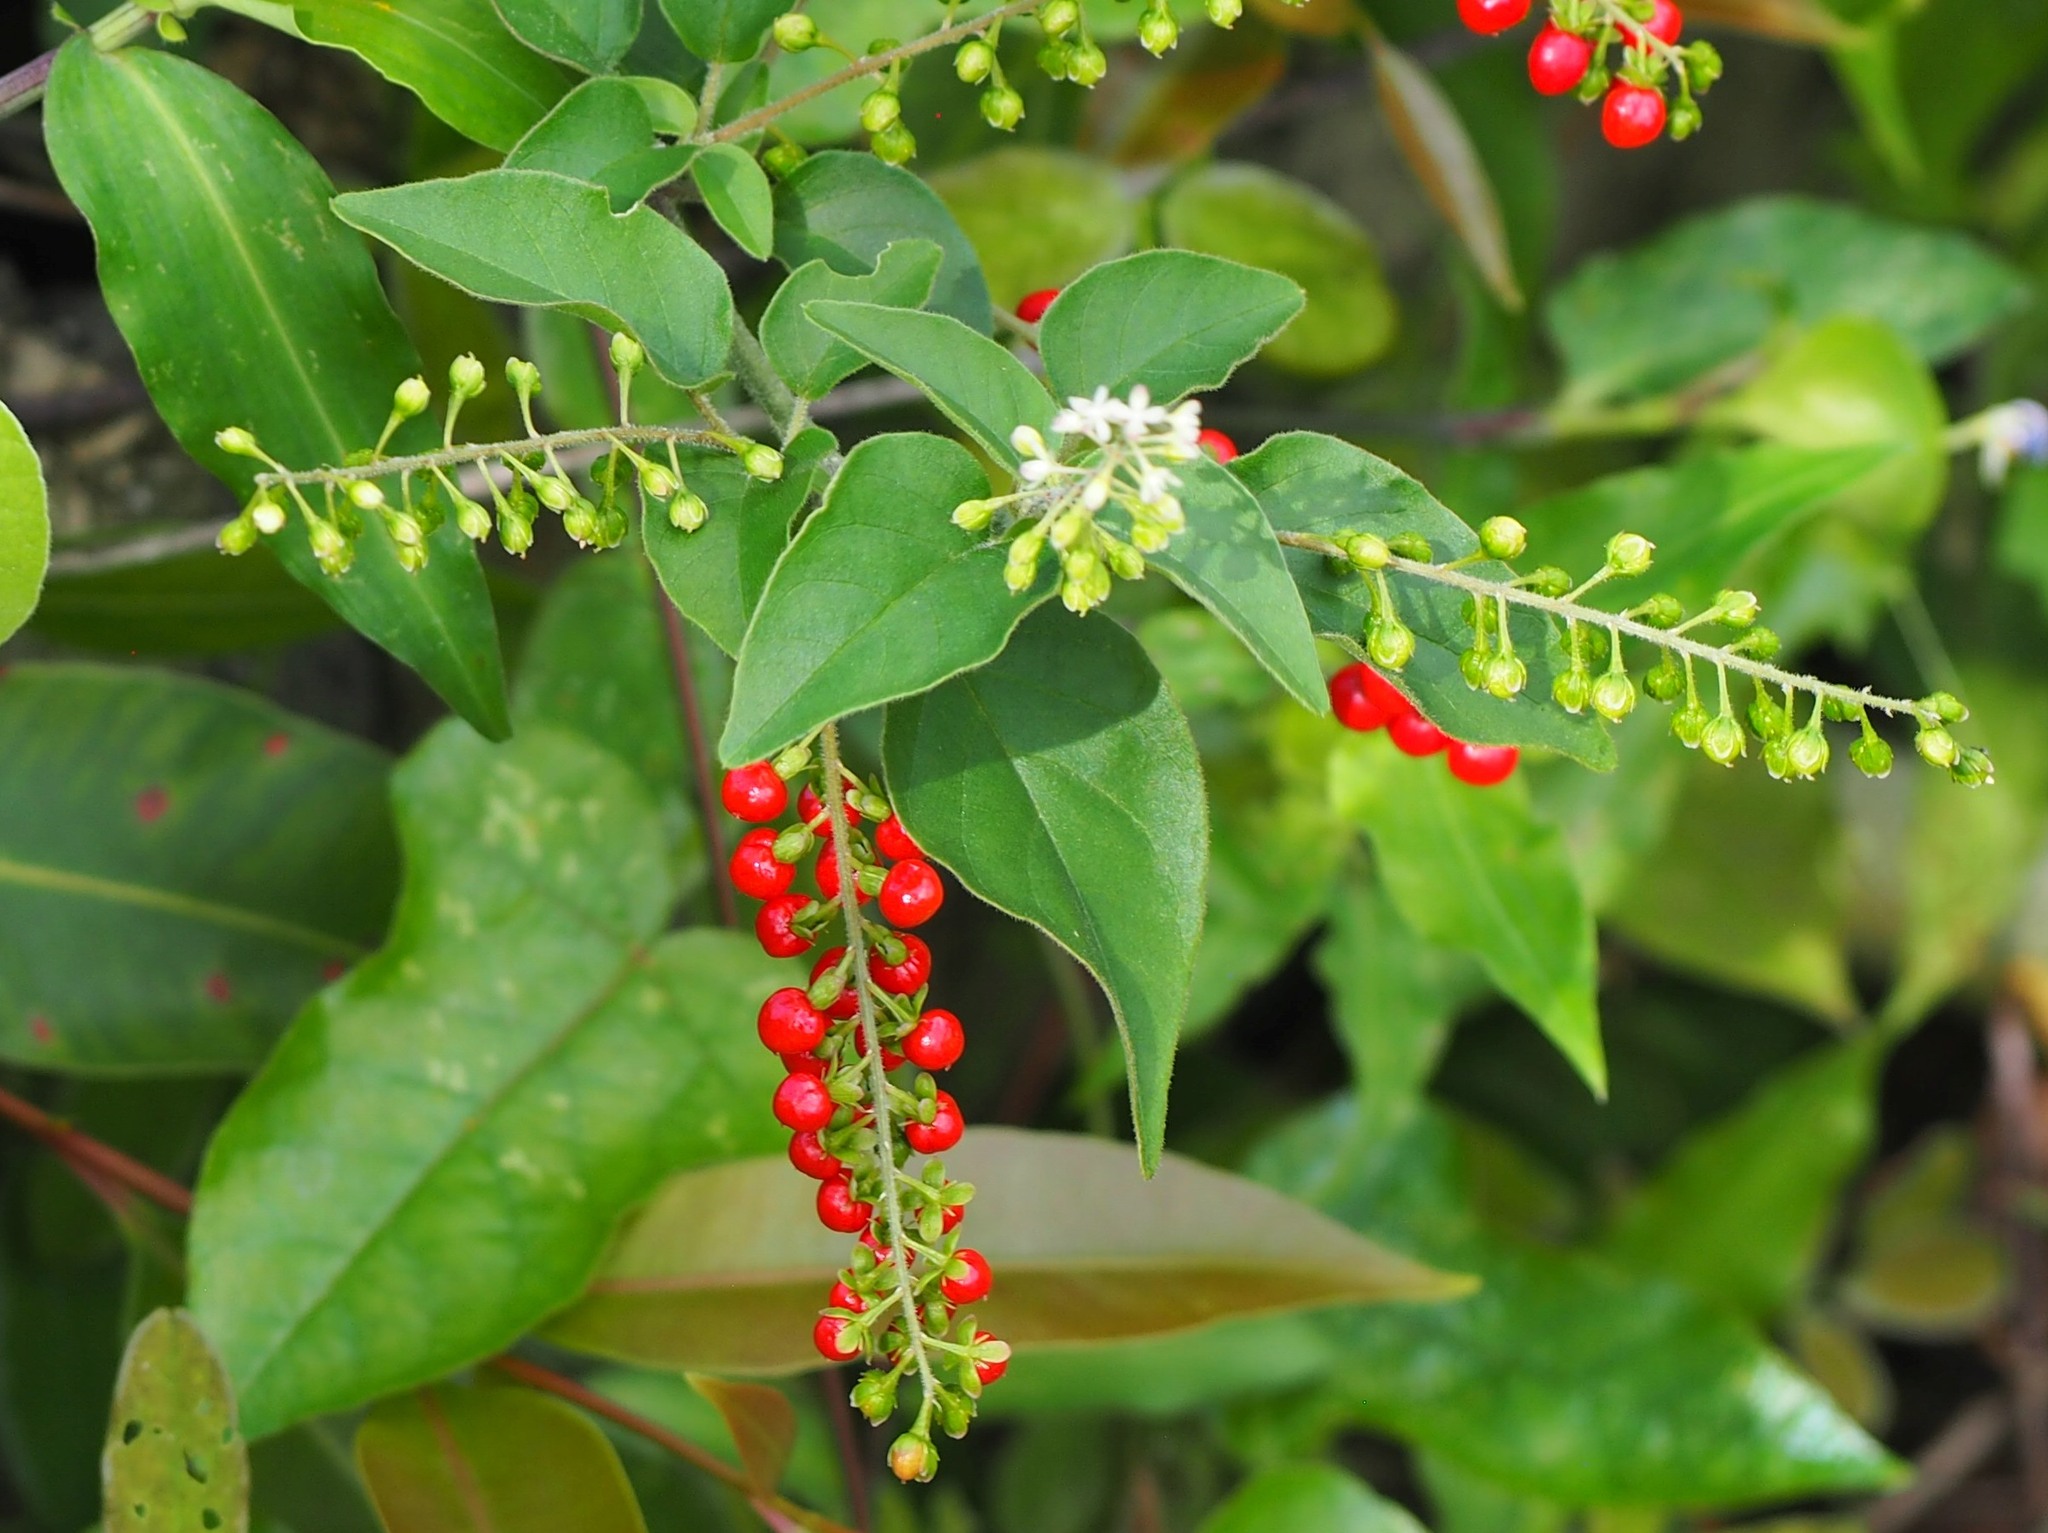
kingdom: Plantae
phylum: Tracheophyta
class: Magnoliopsida
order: Caryophyllales
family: Phytolaccaceae
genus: Rivina
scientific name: Rivina humilis
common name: Rougeplant
